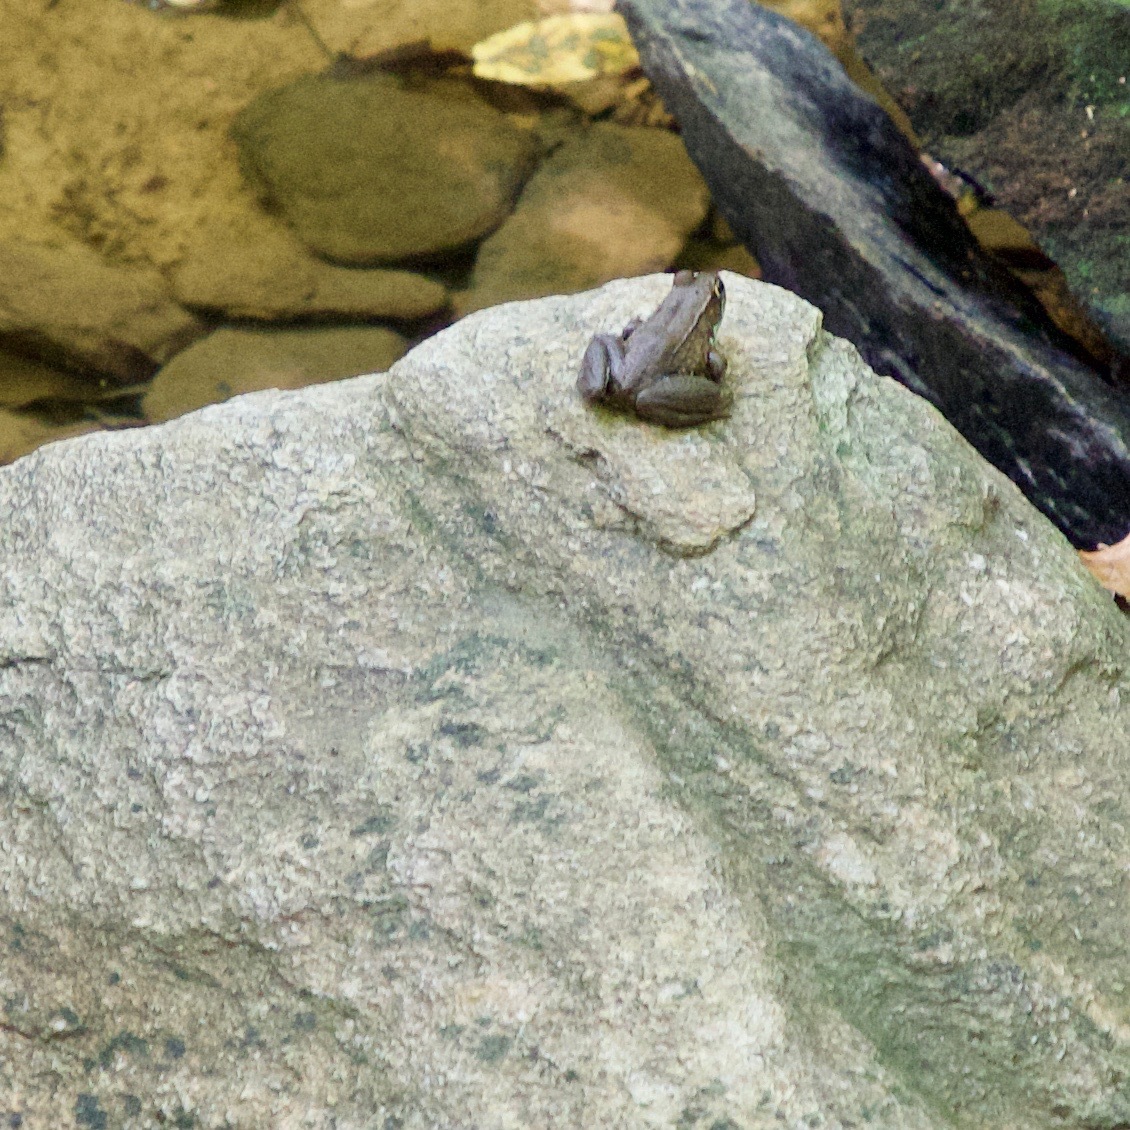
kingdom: Animalia
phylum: Chordata
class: Amphibia
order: Anura
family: Ranidae
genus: Lithobates
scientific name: Lithobates clamitans
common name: Green frog
